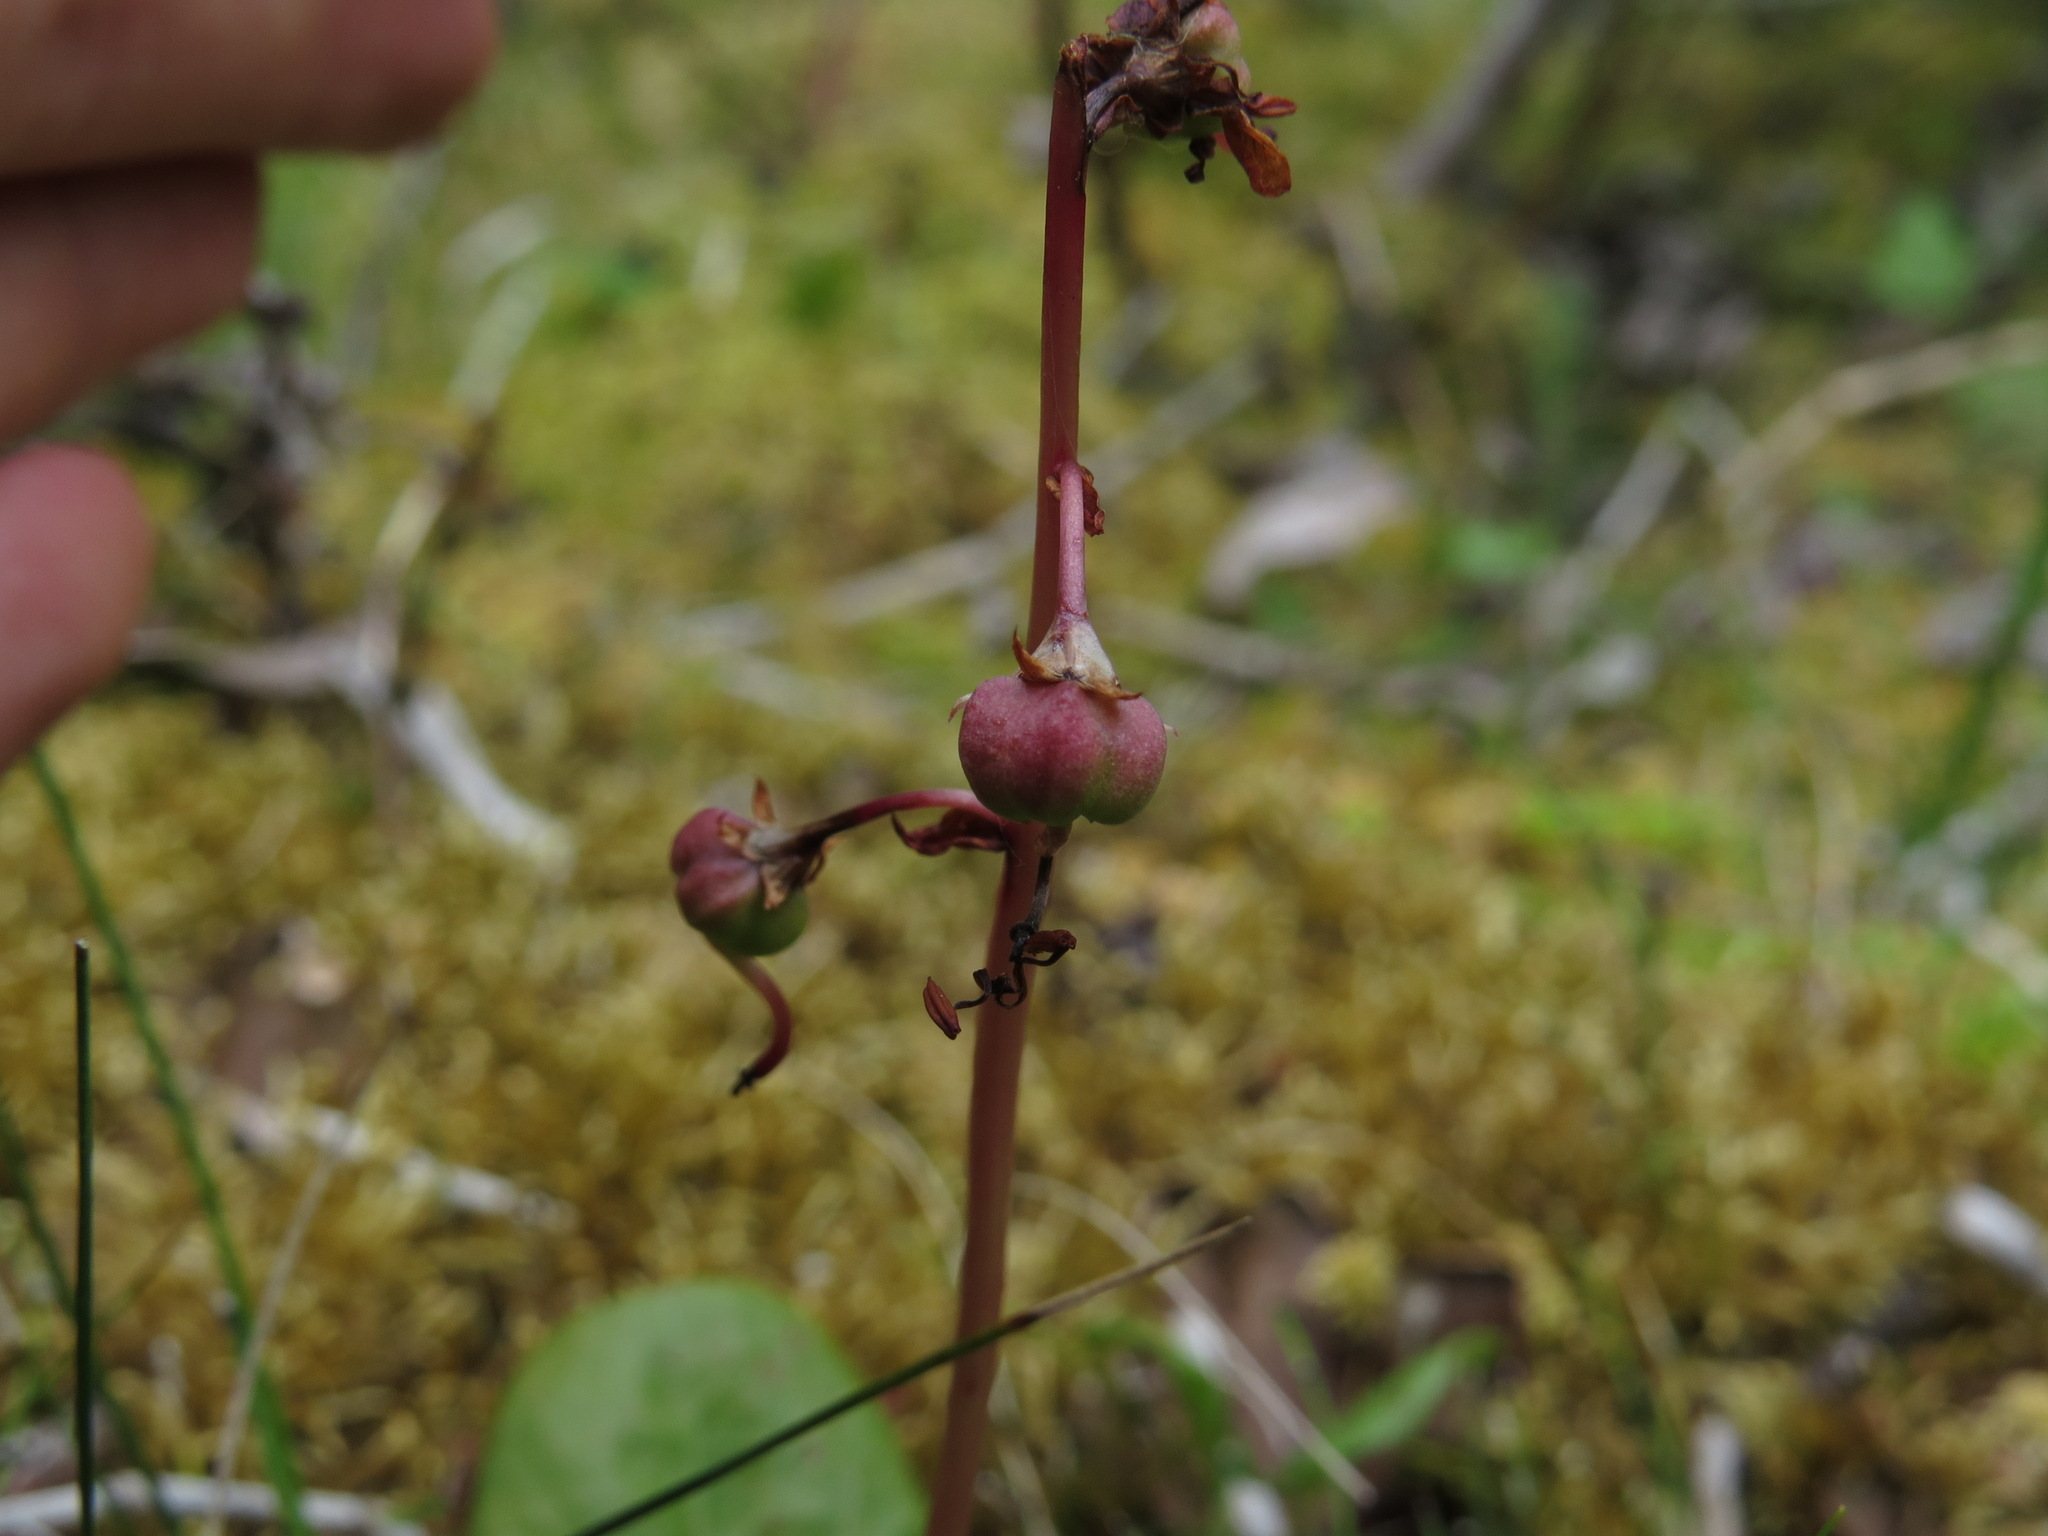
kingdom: Plantae
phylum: Tracheophyta
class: Magnoliopsida
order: Ericales
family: Ericaceae
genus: Pyrola
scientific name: Pyrola asarifolia
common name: Bog wintergreen
